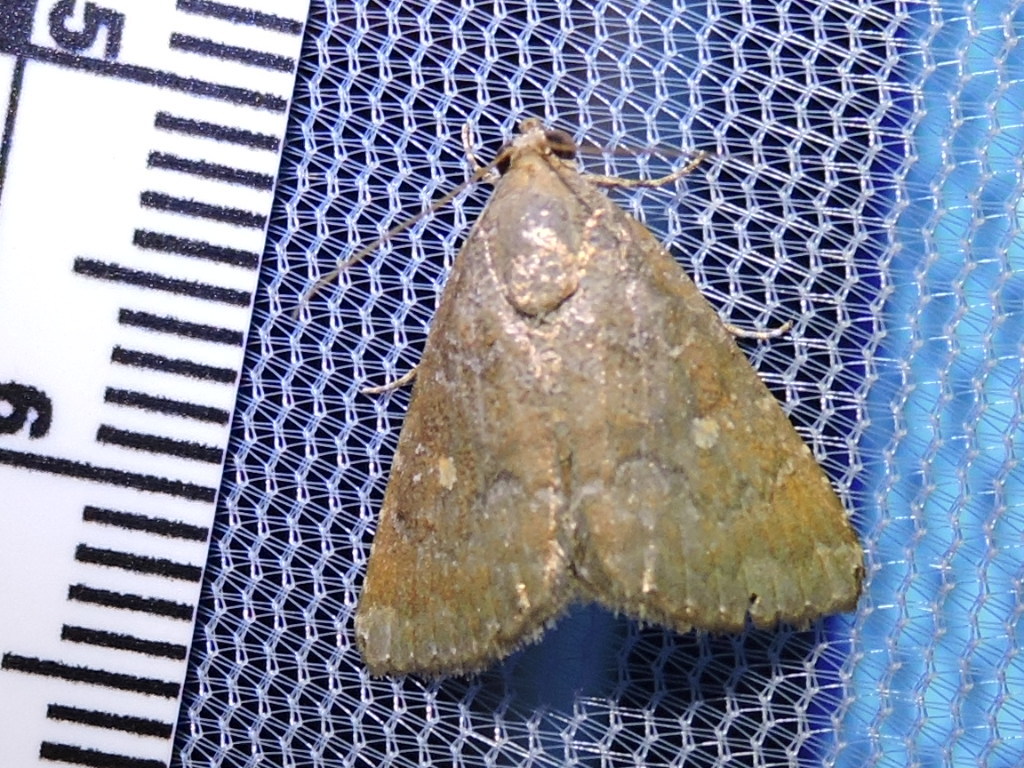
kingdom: Animalia
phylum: Arthropoda
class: Insecta
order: Lepidoptera
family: Noctuidae
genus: Amyna
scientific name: Amyna stricta
